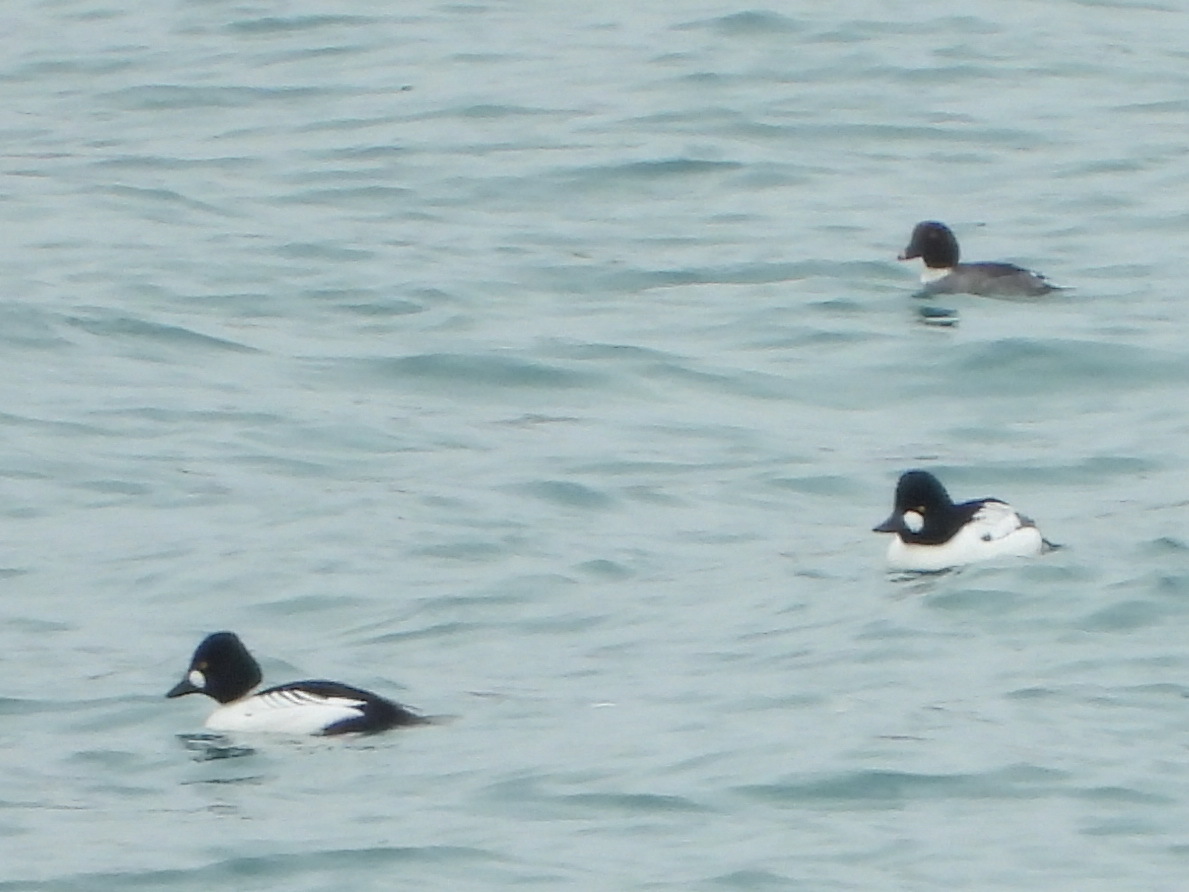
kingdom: Animalia
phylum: Chordata
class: Aves
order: Anseriformes
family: Anatidae
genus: Bucephala
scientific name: Bucephala clangula
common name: Common goldeneye
